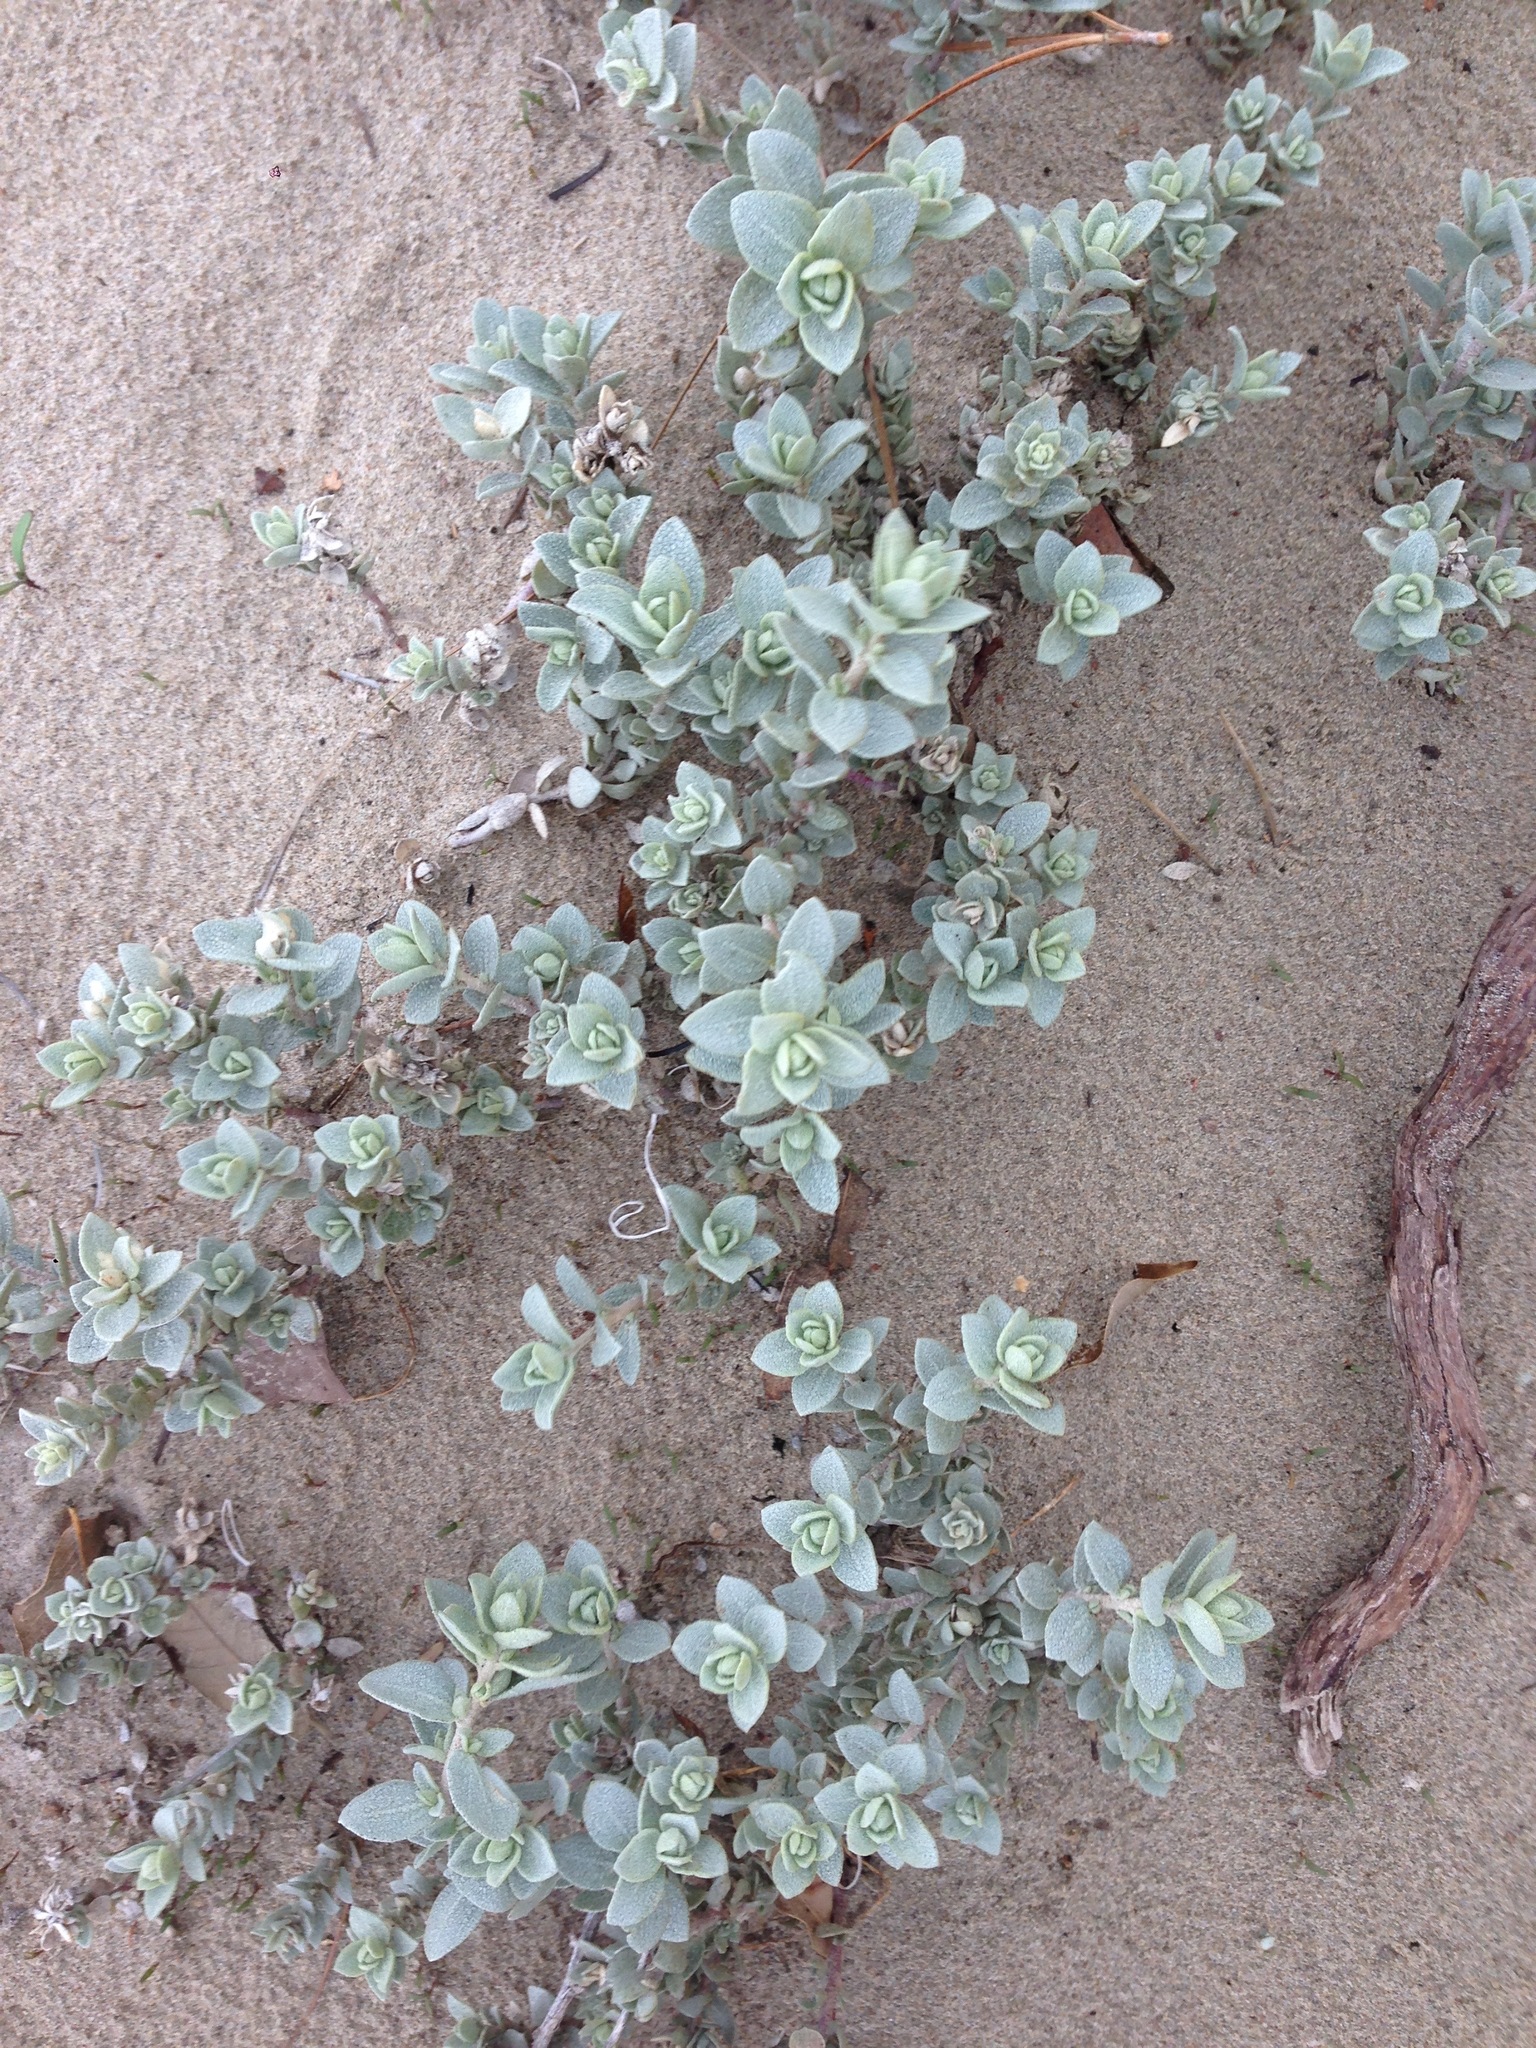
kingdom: Plantae
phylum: Tracheophyta
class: Magnoliopsida
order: Caryophyllales
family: Amaranthaceae
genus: Atriplex
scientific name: Atriplex leucophylla
